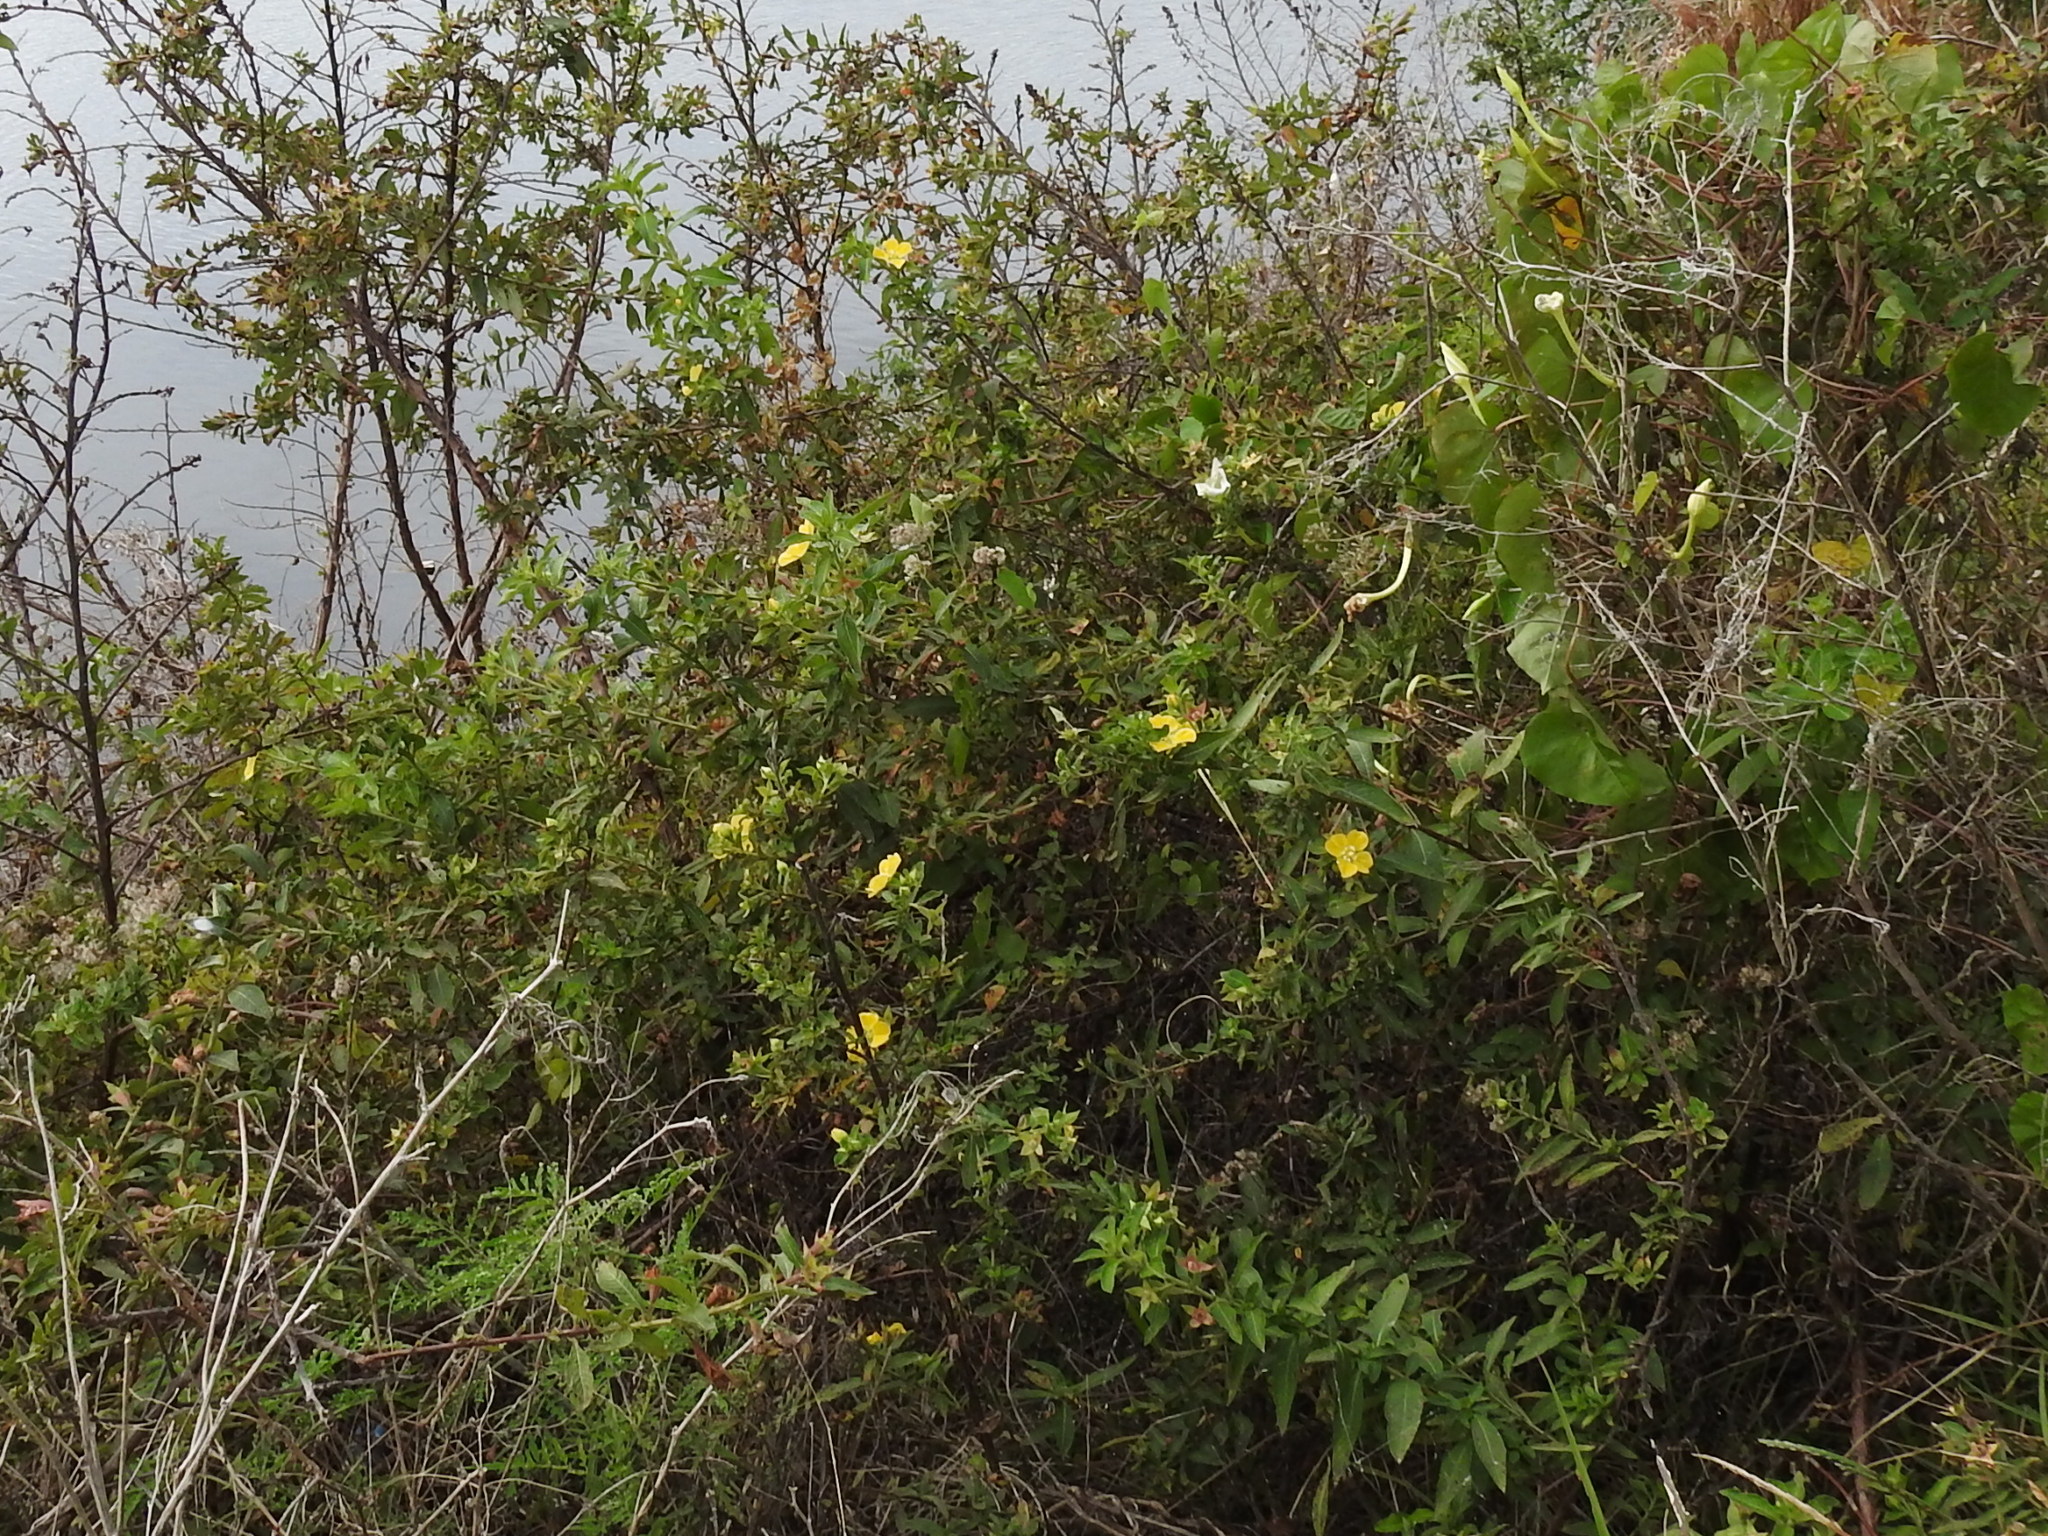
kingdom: Plantae
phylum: Tracheophyta
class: Magnoliopsida
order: Myrtales
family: Onagraceae
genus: Ludwigia
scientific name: Ludwigia peruviana
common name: Peruvian primrose-willow
